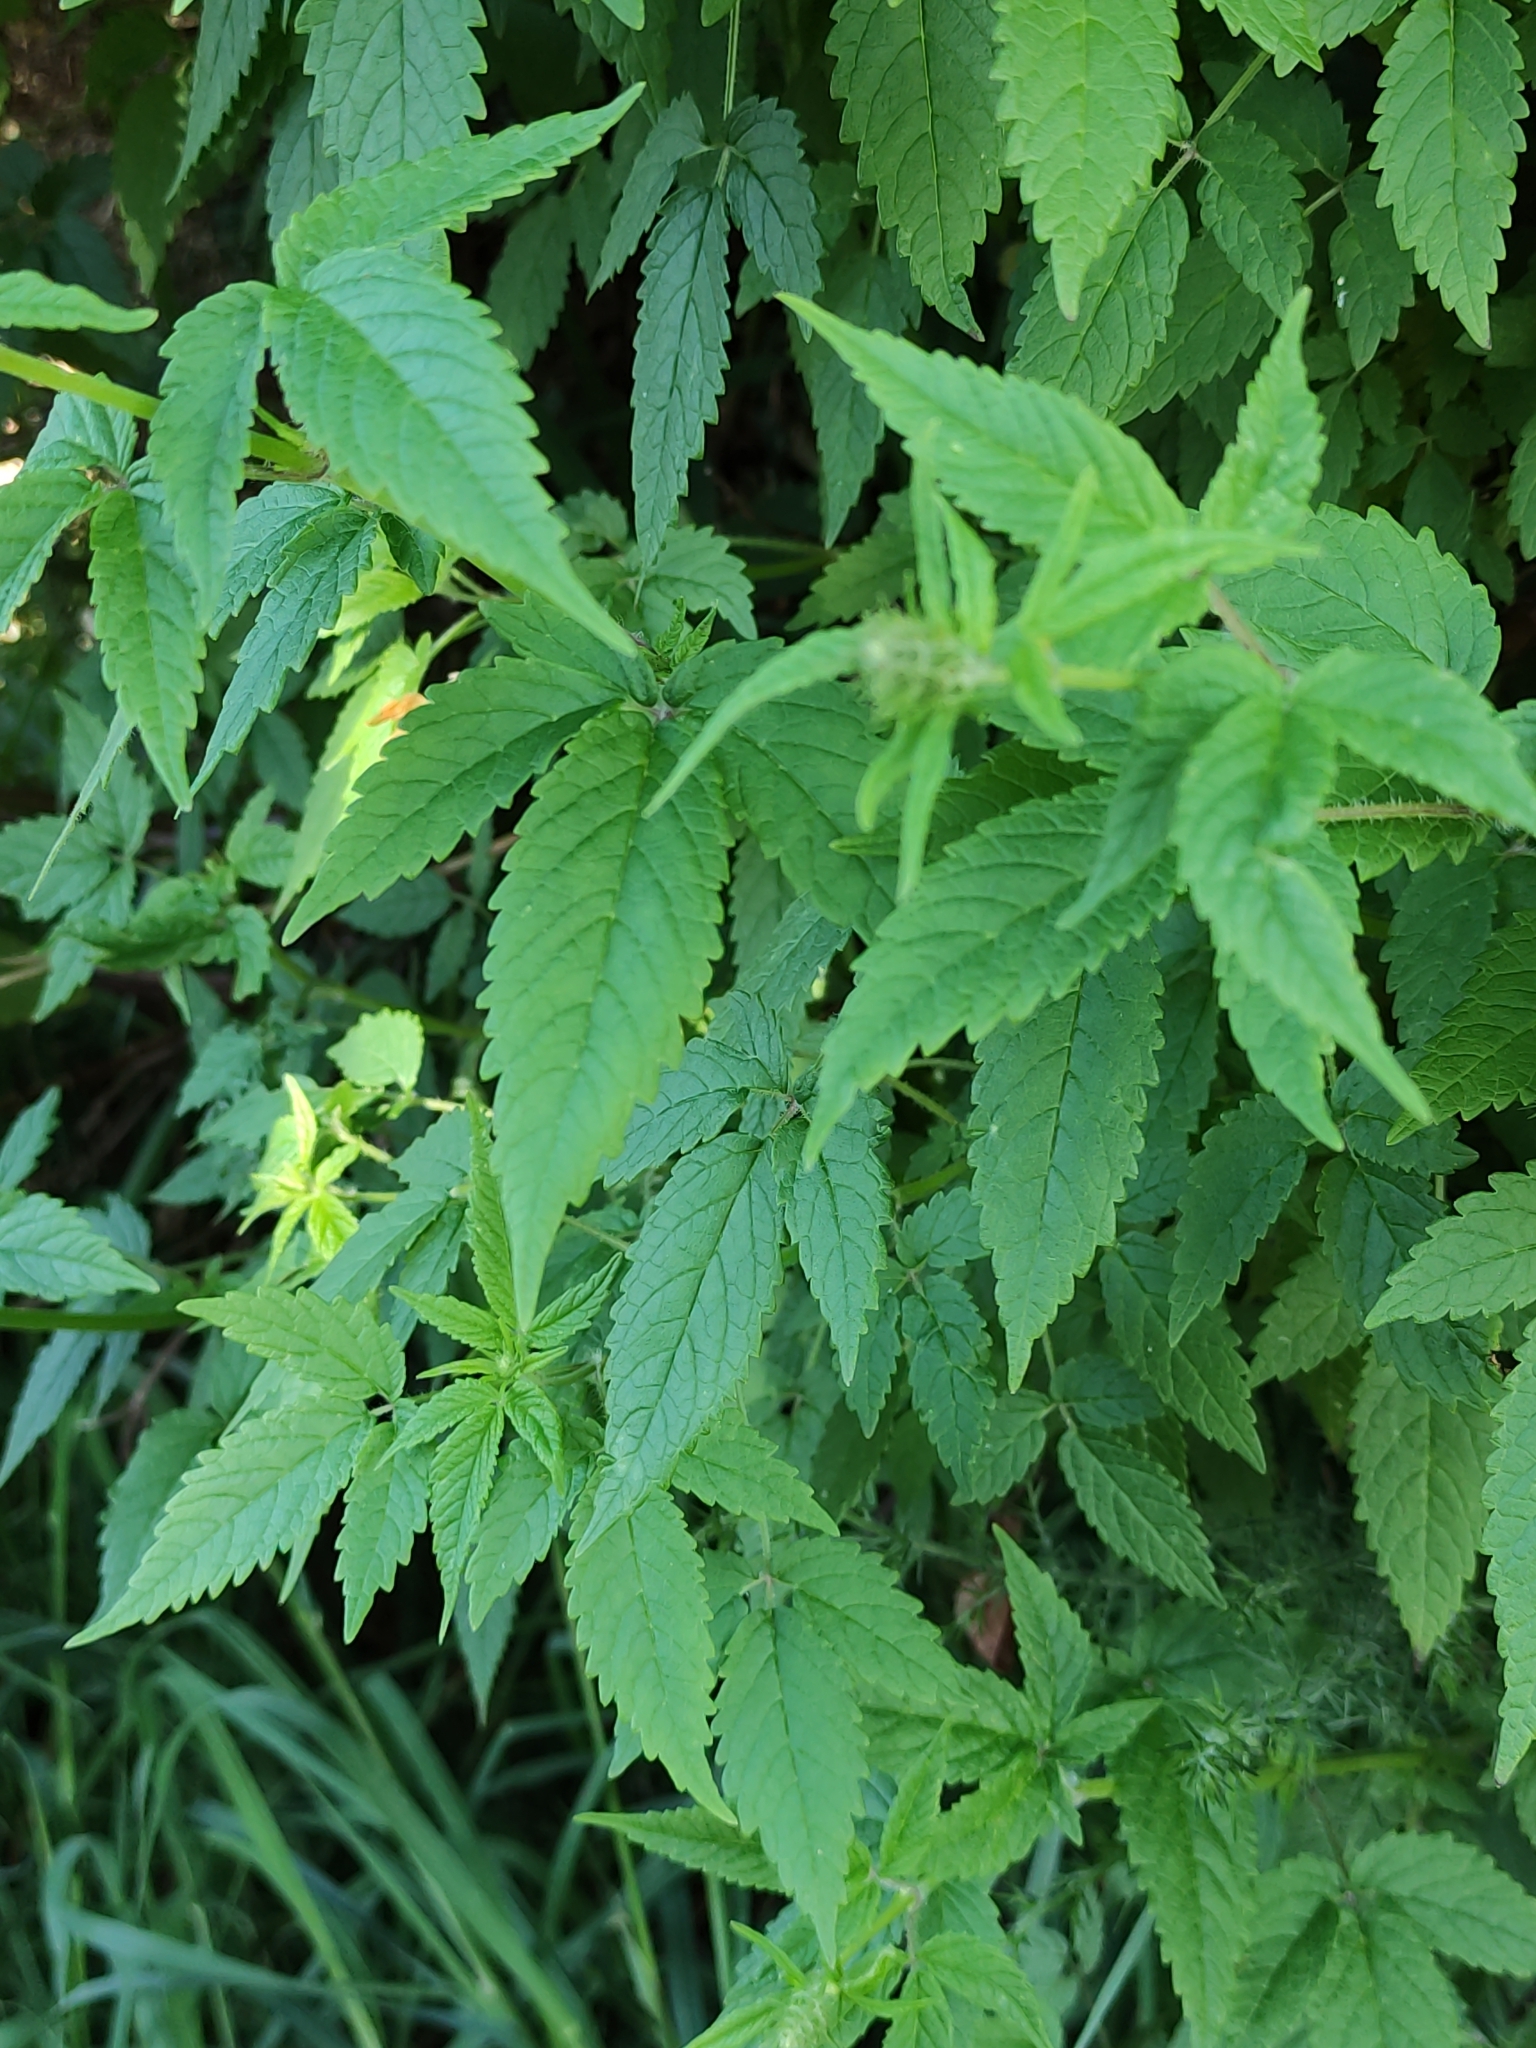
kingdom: Plantae
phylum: Tracheophyta
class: Magnoliopsida
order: Lamiales
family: Lamiaceae
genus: Cedronella
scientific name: Cedronella canariensis
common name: Canary islands balm
